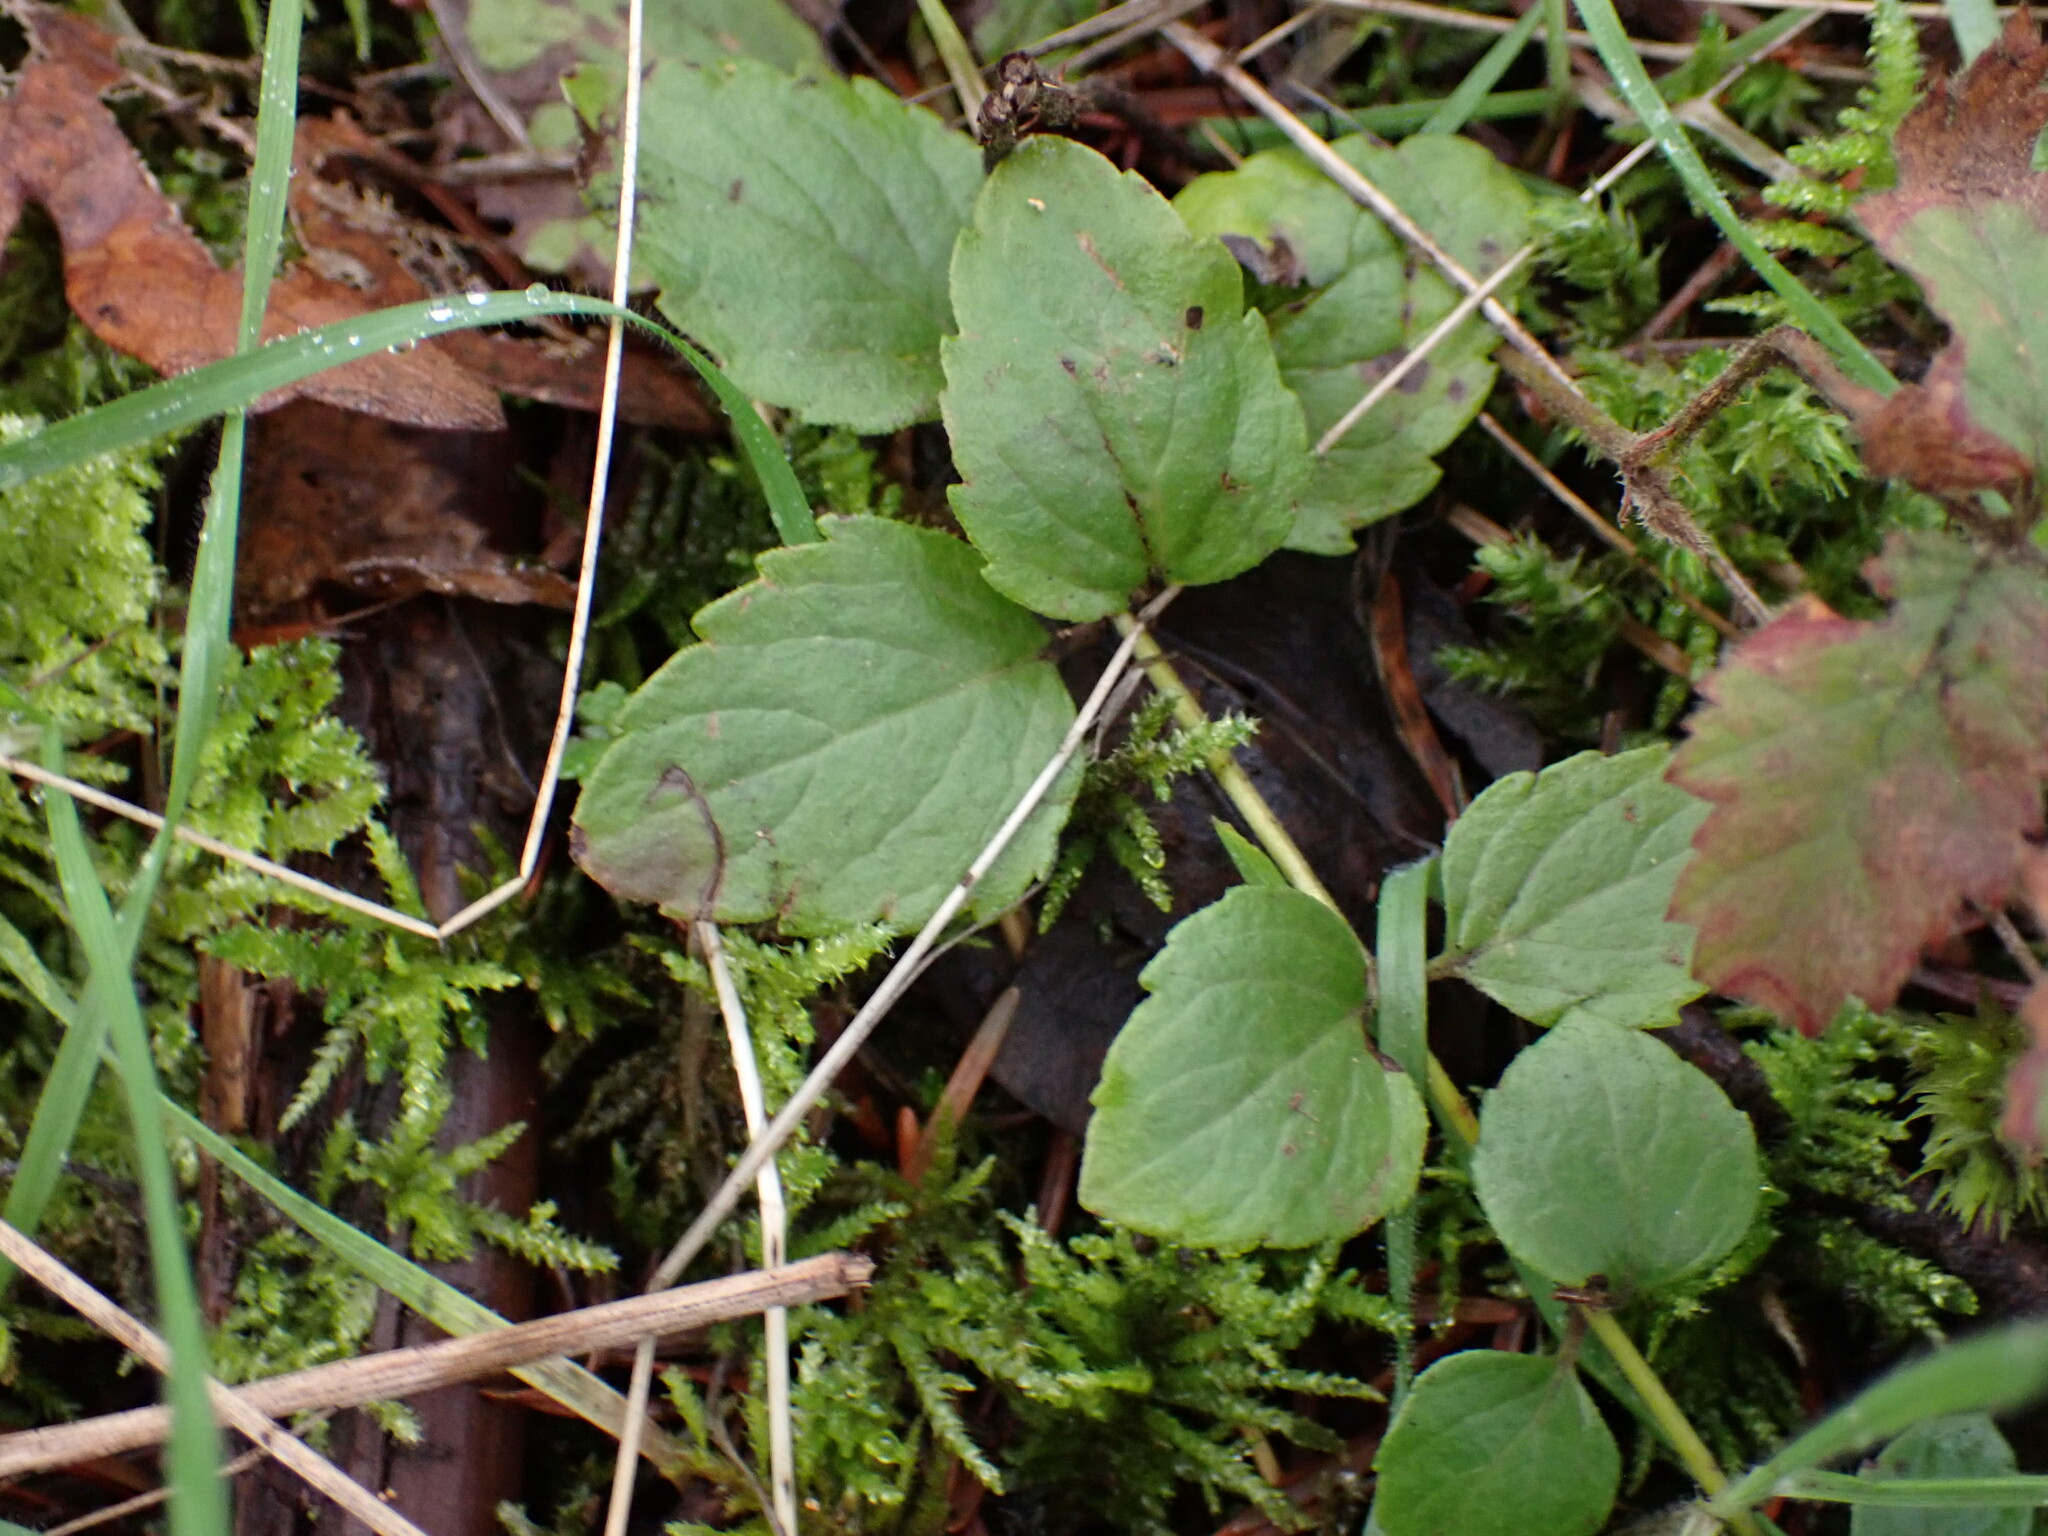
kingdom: Plantae
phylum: Tracheophyta
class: Magnoliopsida
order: Lamiales
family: Lamiaceae
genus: Micromeria
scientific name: Micromeria douglasii
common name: Yerba buena
